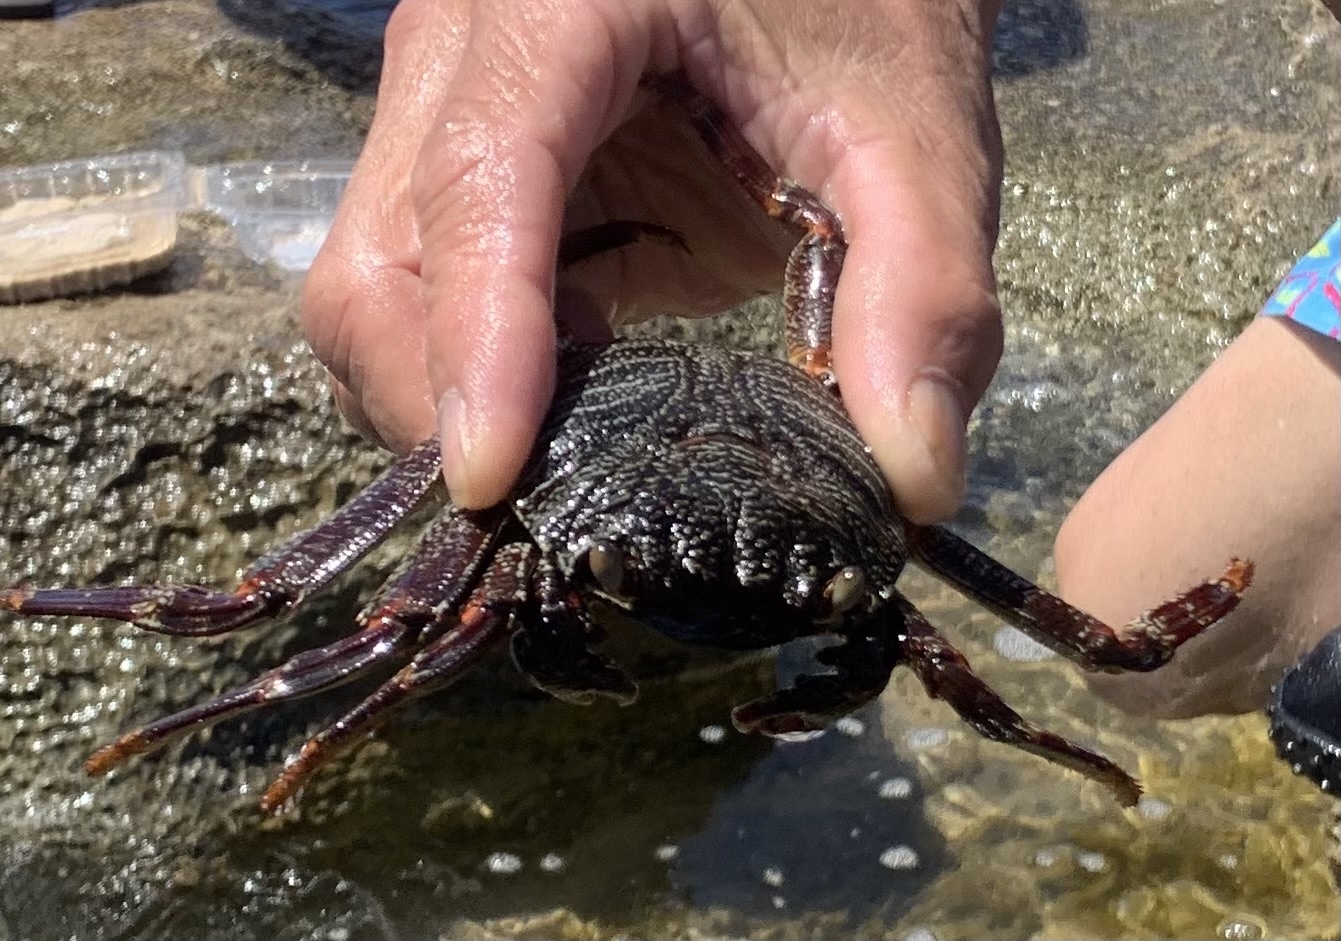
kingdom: Animalia
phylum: Arthropoda
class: Malacostraca
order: Decapoda
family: Grapsidae
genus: Grapsus
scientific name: Grapsus tenuicrustatus
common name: Natal lightfoot crab
